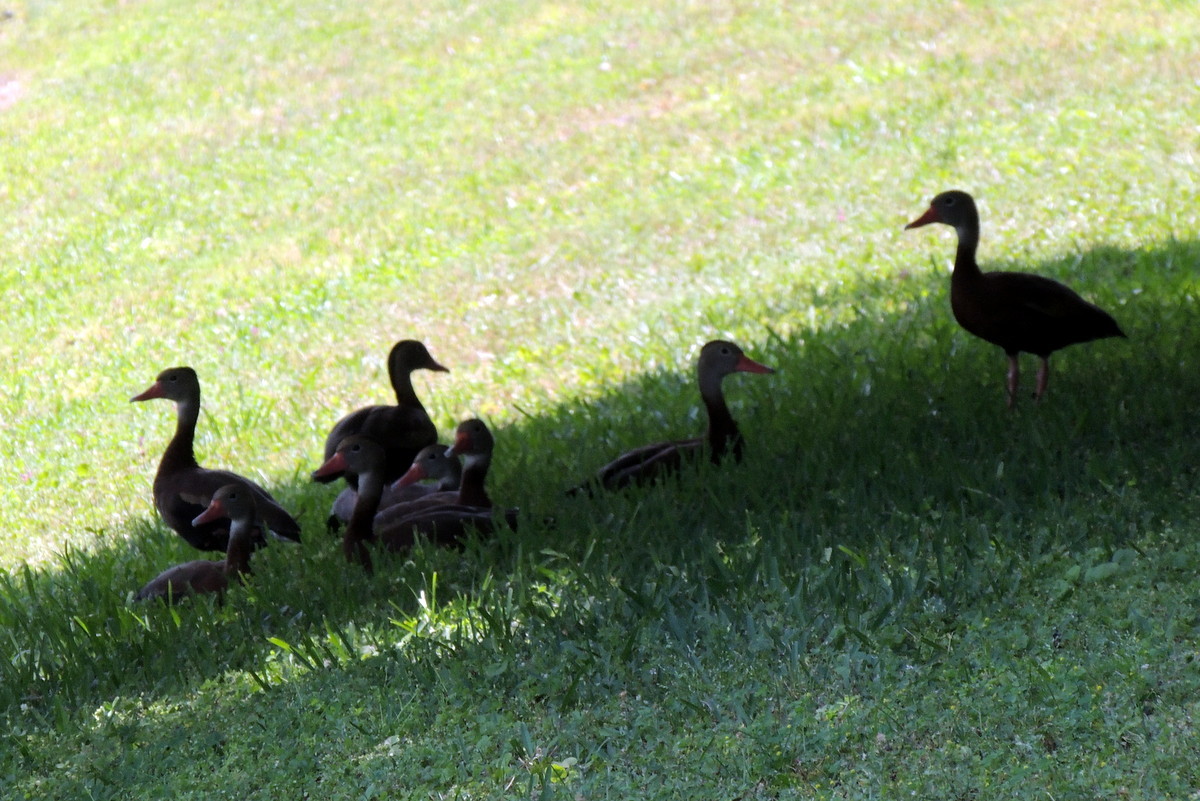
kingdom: Animalia
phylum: Chordata
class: Aves
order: Anseriformes
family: Anatidae
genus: Dendrocygna
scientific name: Dendrocygna autumnalis
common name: Black-bellied whistling duck
